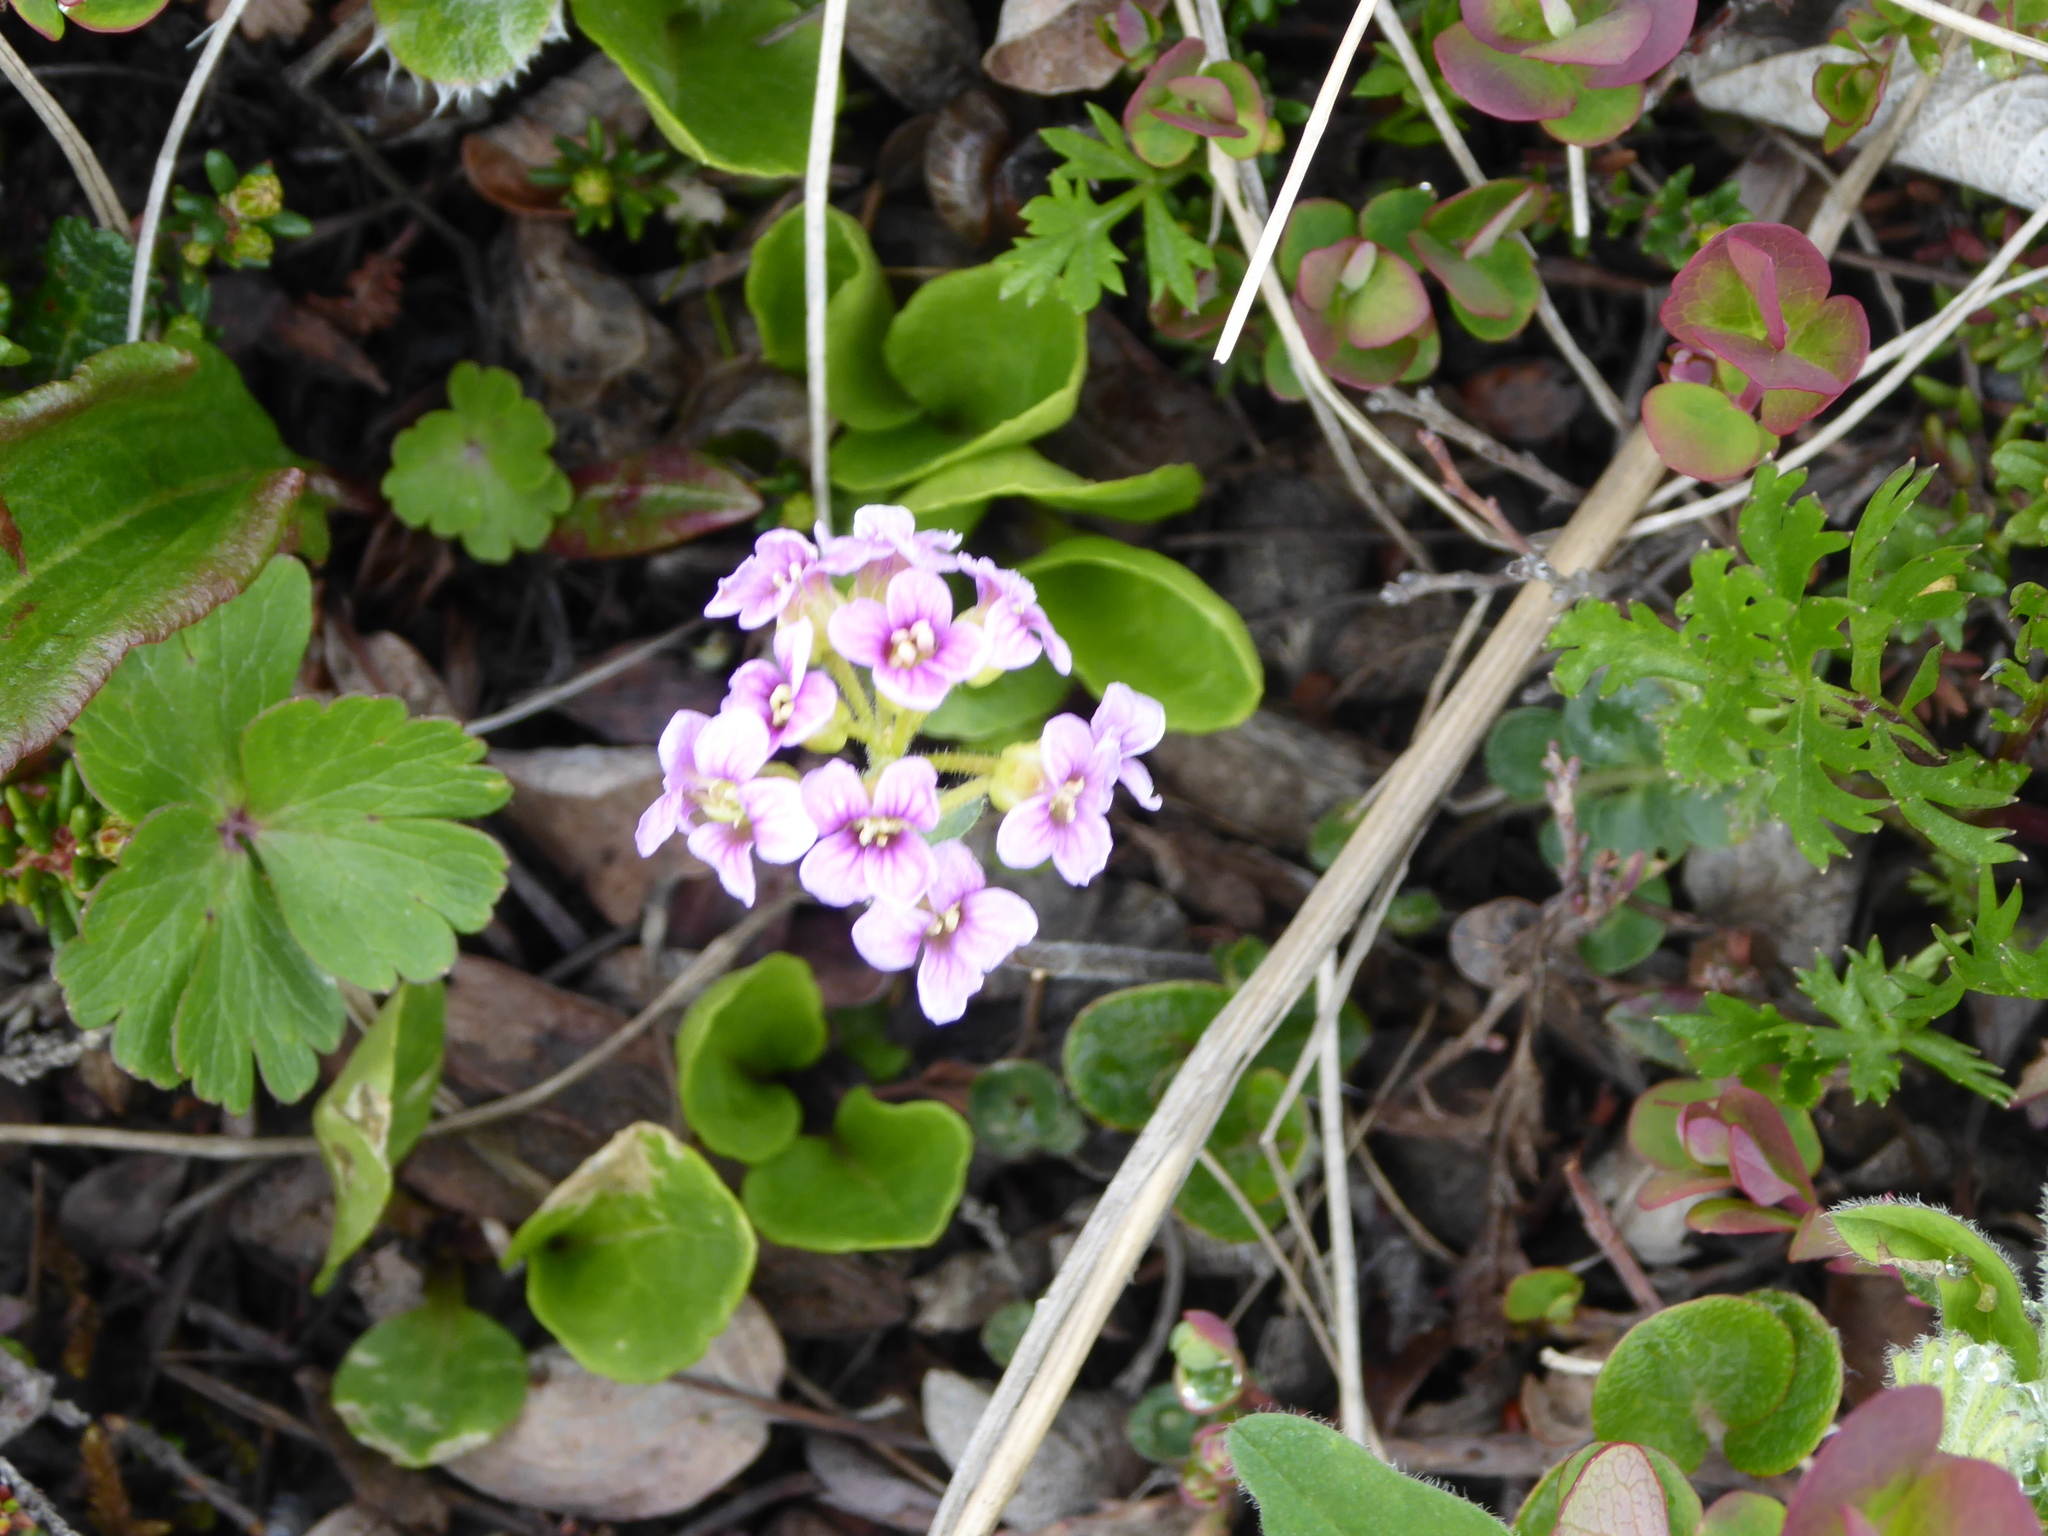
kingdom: Plantae
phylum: Tracheophyta
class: Magnoliopsida
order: Brassicales
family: Brassicaceae
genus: Cardamine
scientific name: Cardamine purpurea
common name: Purple bittercress
